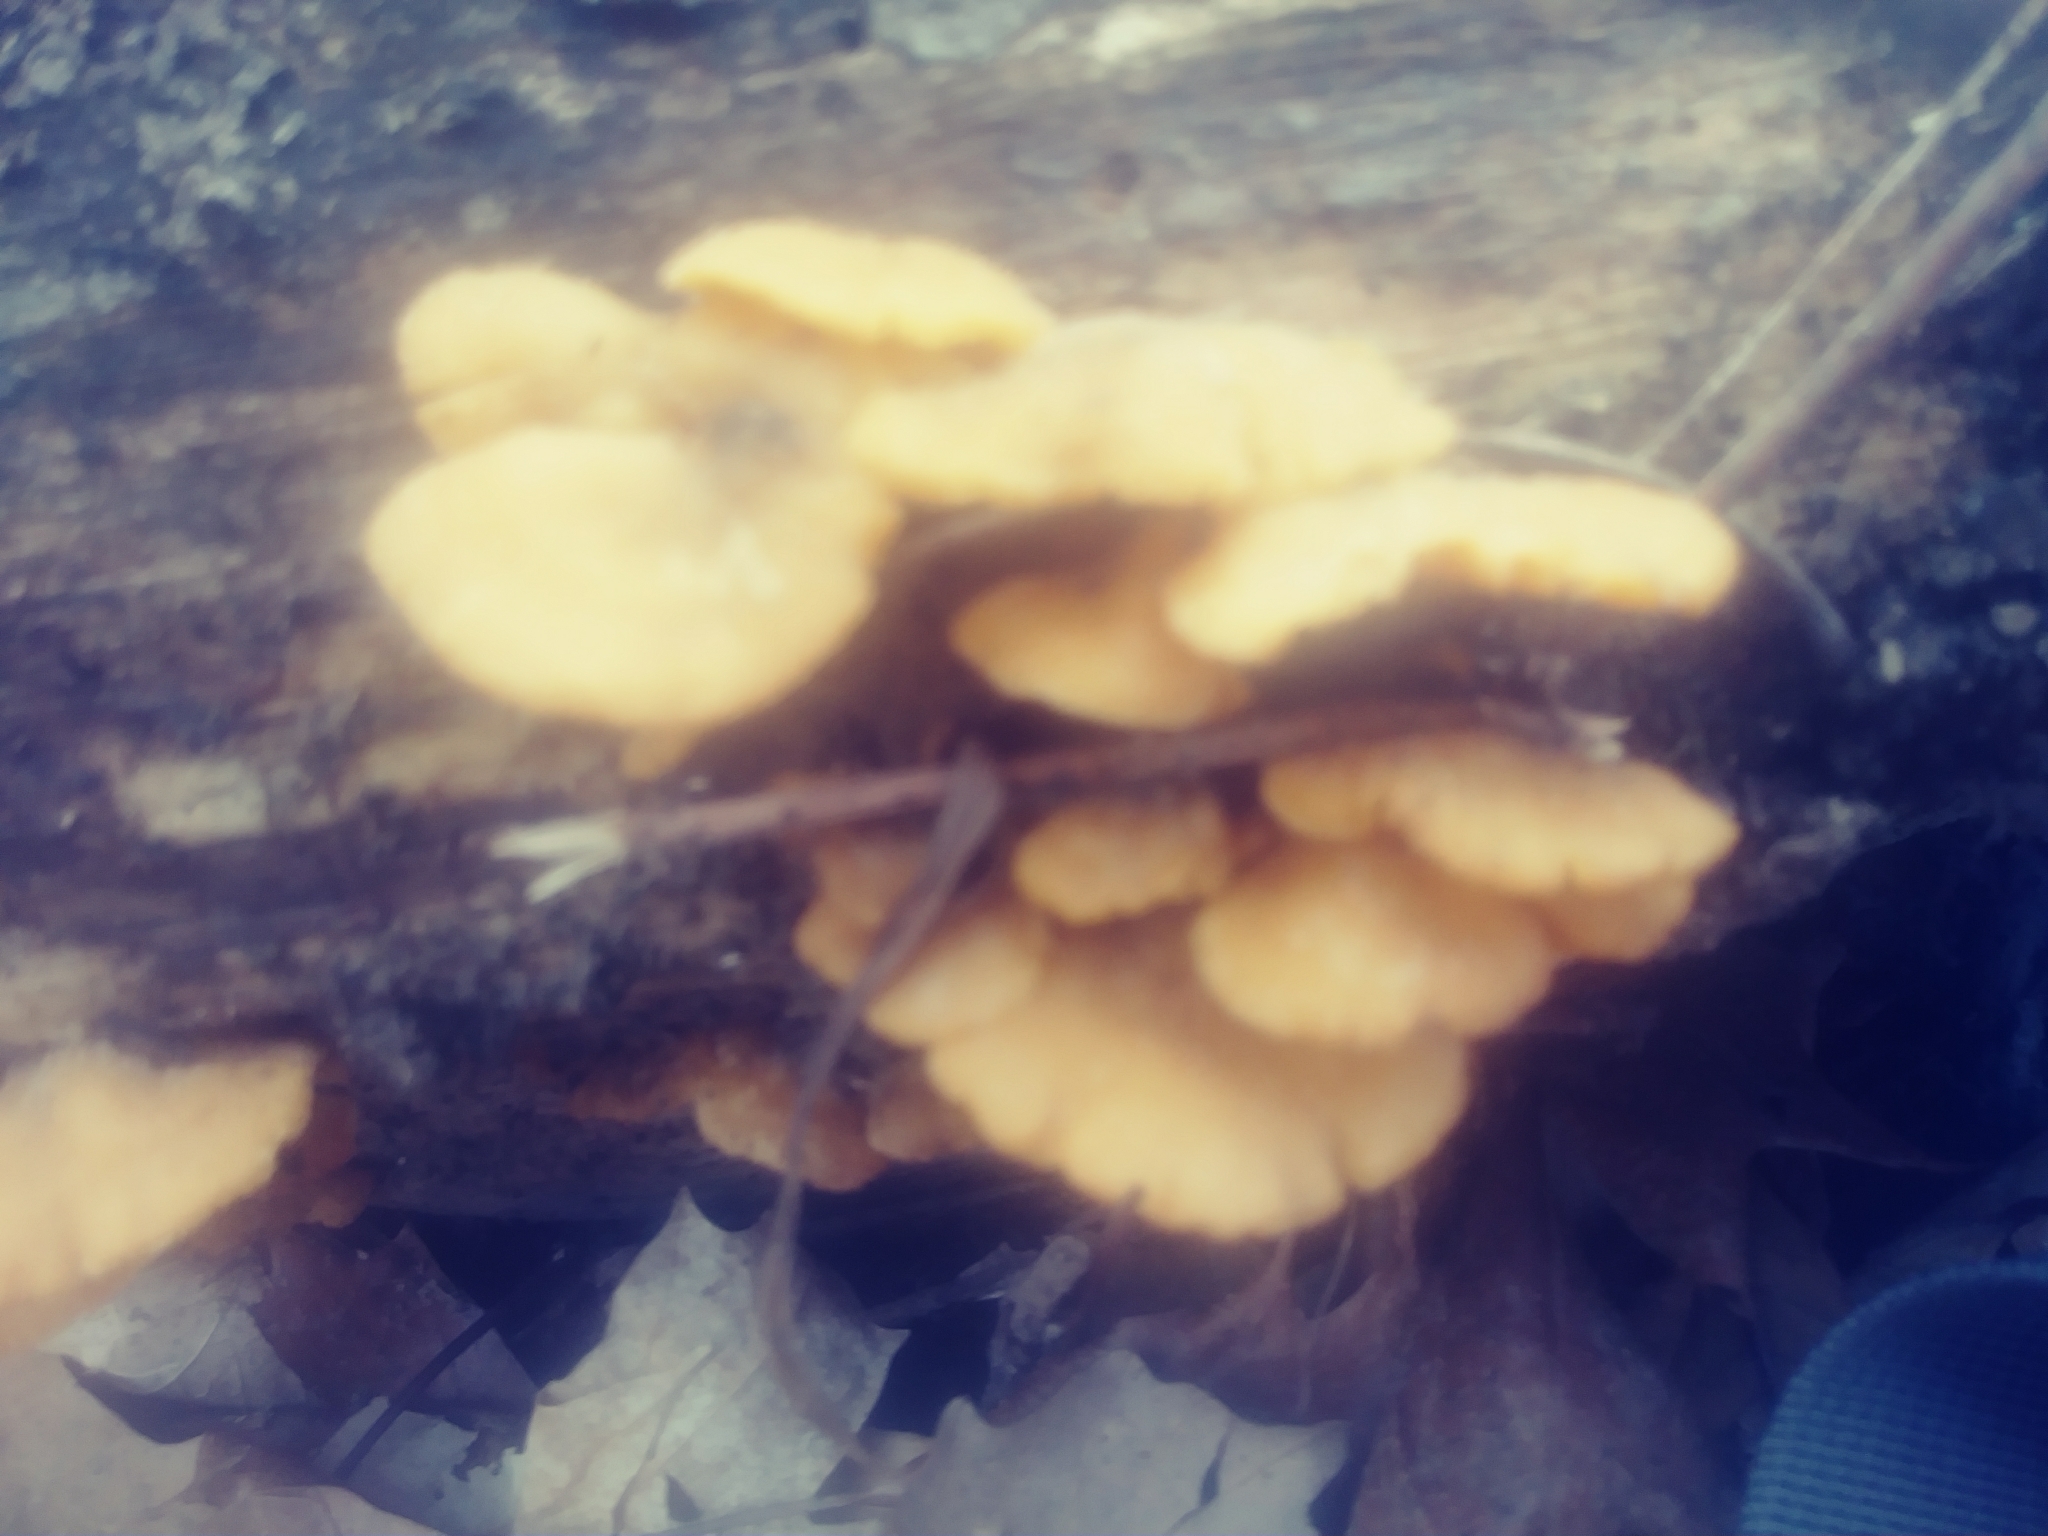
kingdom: Fungi
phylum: Basidiomycota
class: Agaricomycetes
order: Agaricales
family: Phyllotopsidaceae
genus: Phyllotopsis
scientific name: Phyllotopsis nidulans
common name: Orange mock oyster
